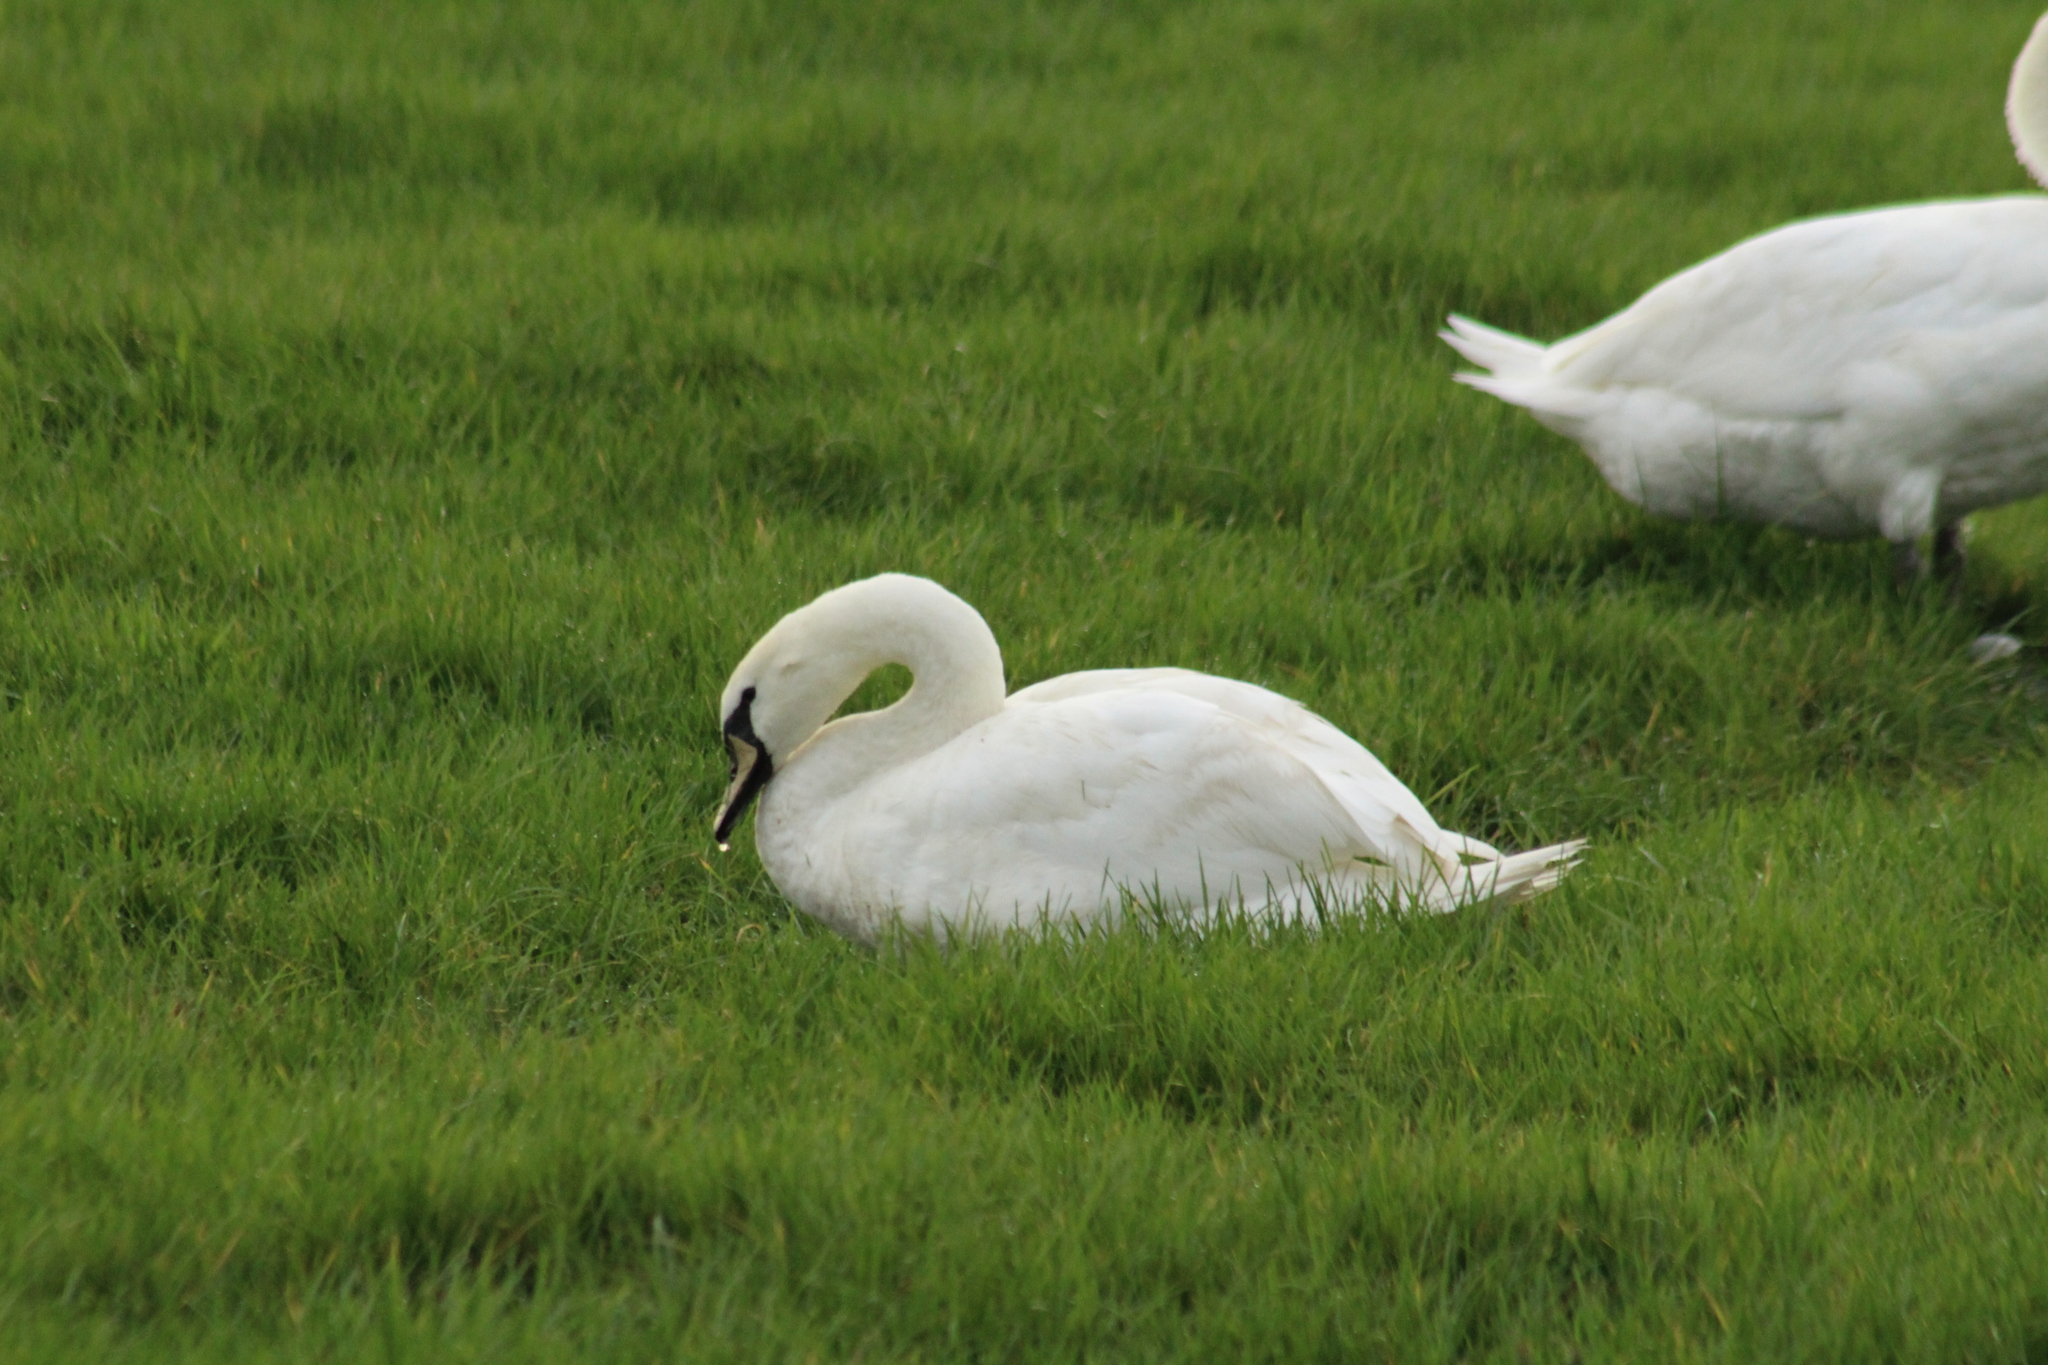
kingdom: Animalia
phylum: Chordata
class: Aves
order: Anseriformes
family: Anatidae
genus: Cygnus
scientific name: Cygnus olor
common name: Mute swan
